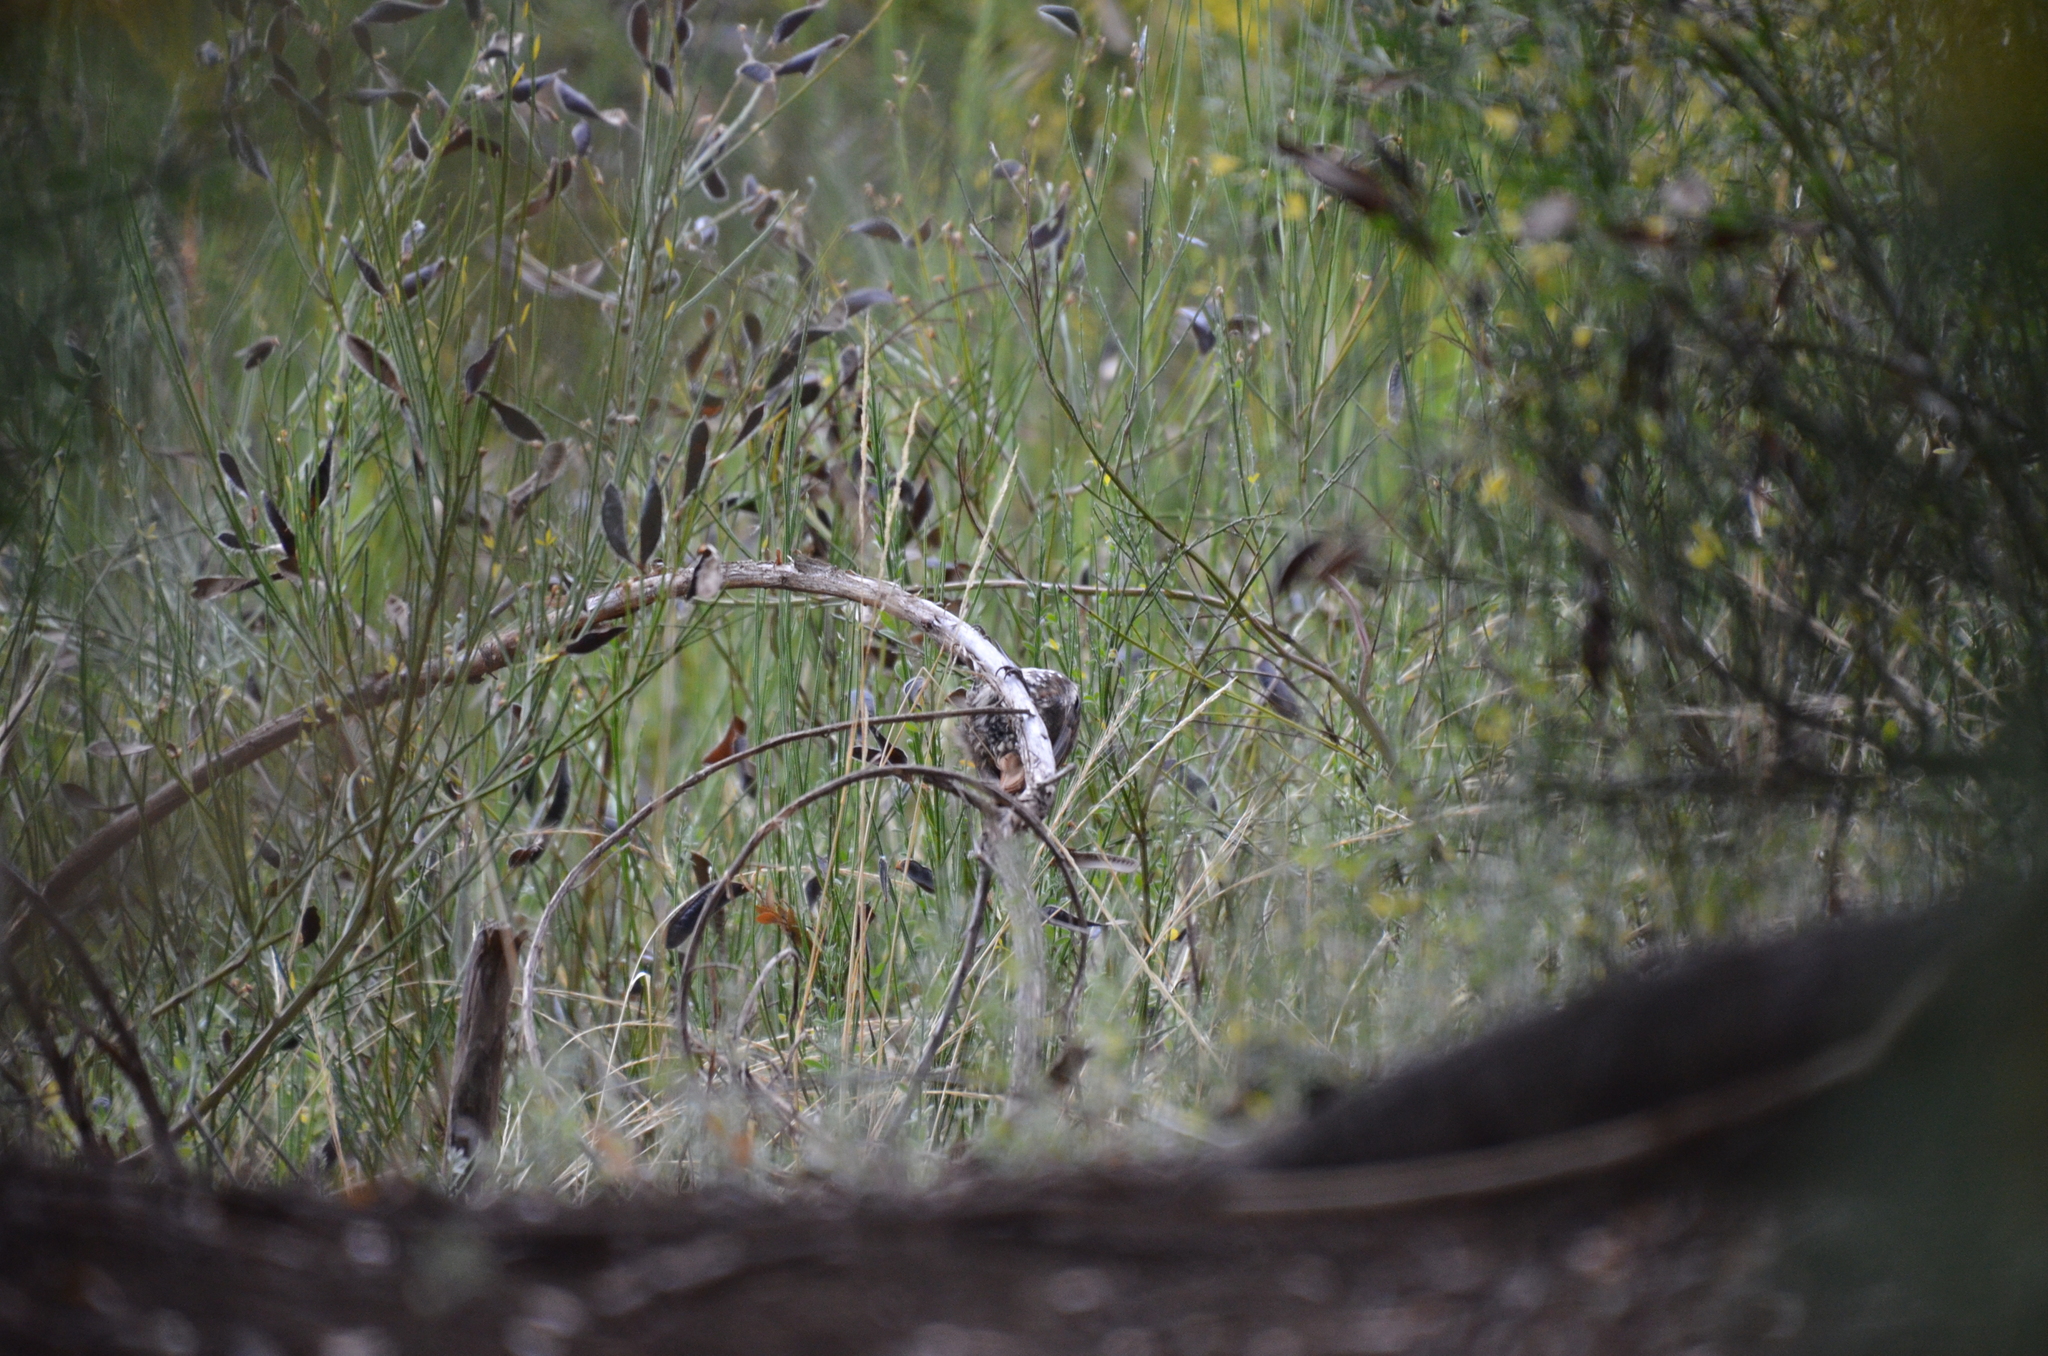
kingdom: Animalia
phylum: Chordata
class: Aves
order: Passeriformes
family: Furnariidae
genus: Pygarrhichas
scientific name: Pygarrhichas albogularis
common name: White-throated treerunner
